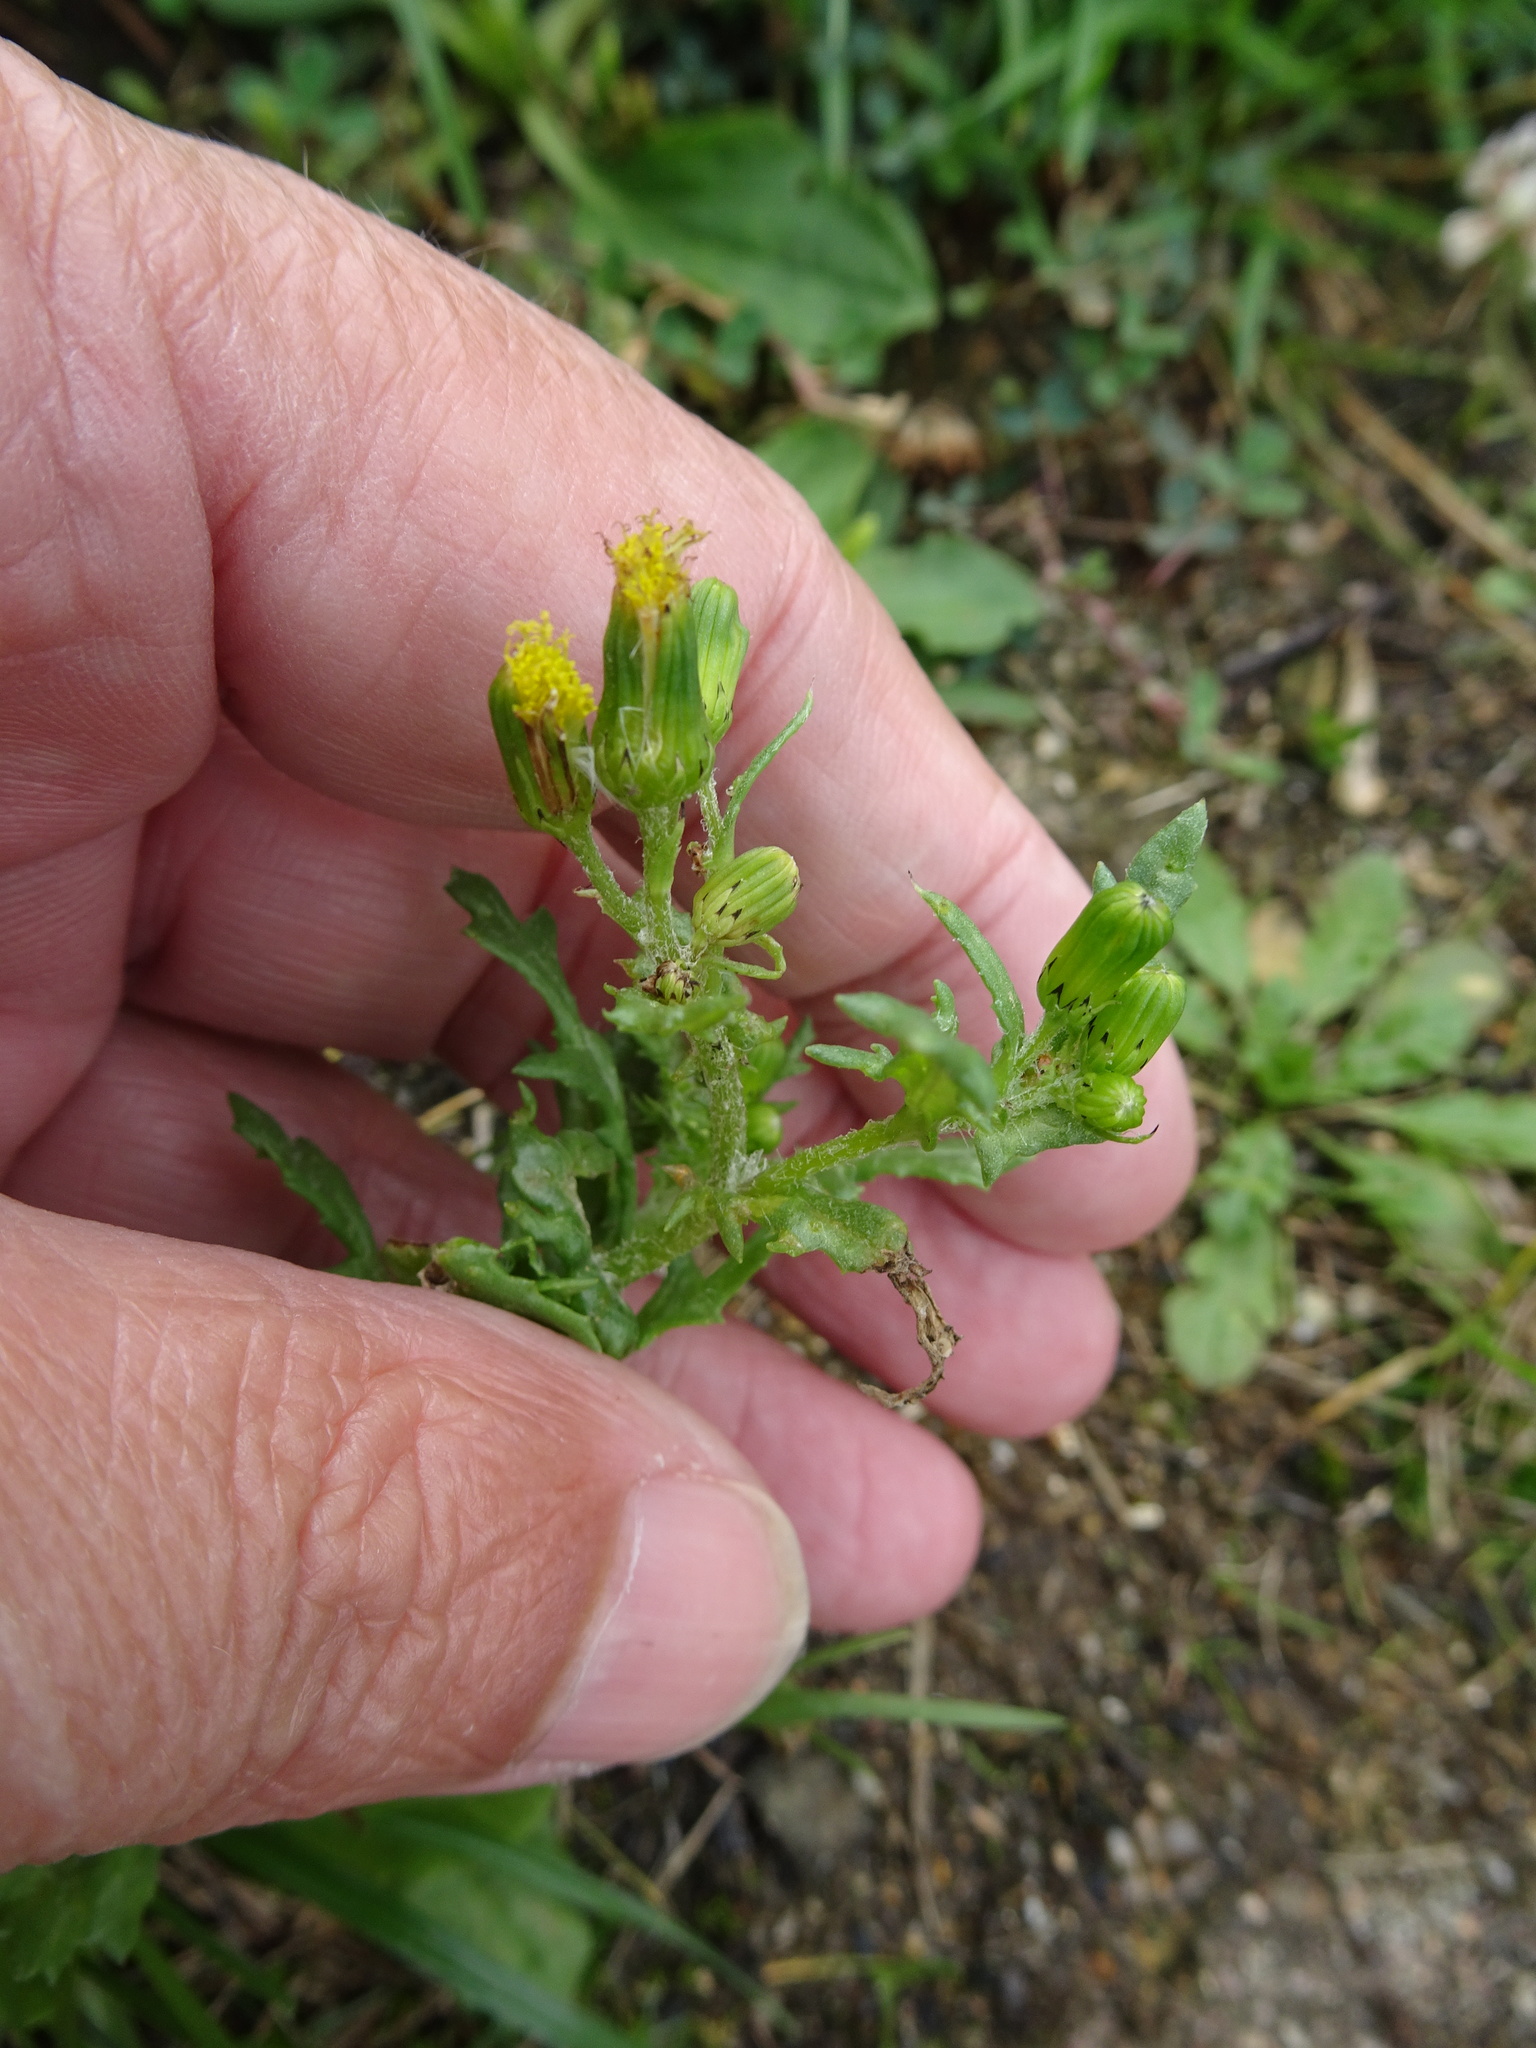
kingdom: Plantae
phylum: Tracheophyta
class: Magnoliopsida
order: Asterales
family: Asteraceae
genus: Senecio
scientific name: Senecio vulgaris
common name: Old-man-in-the-spring
